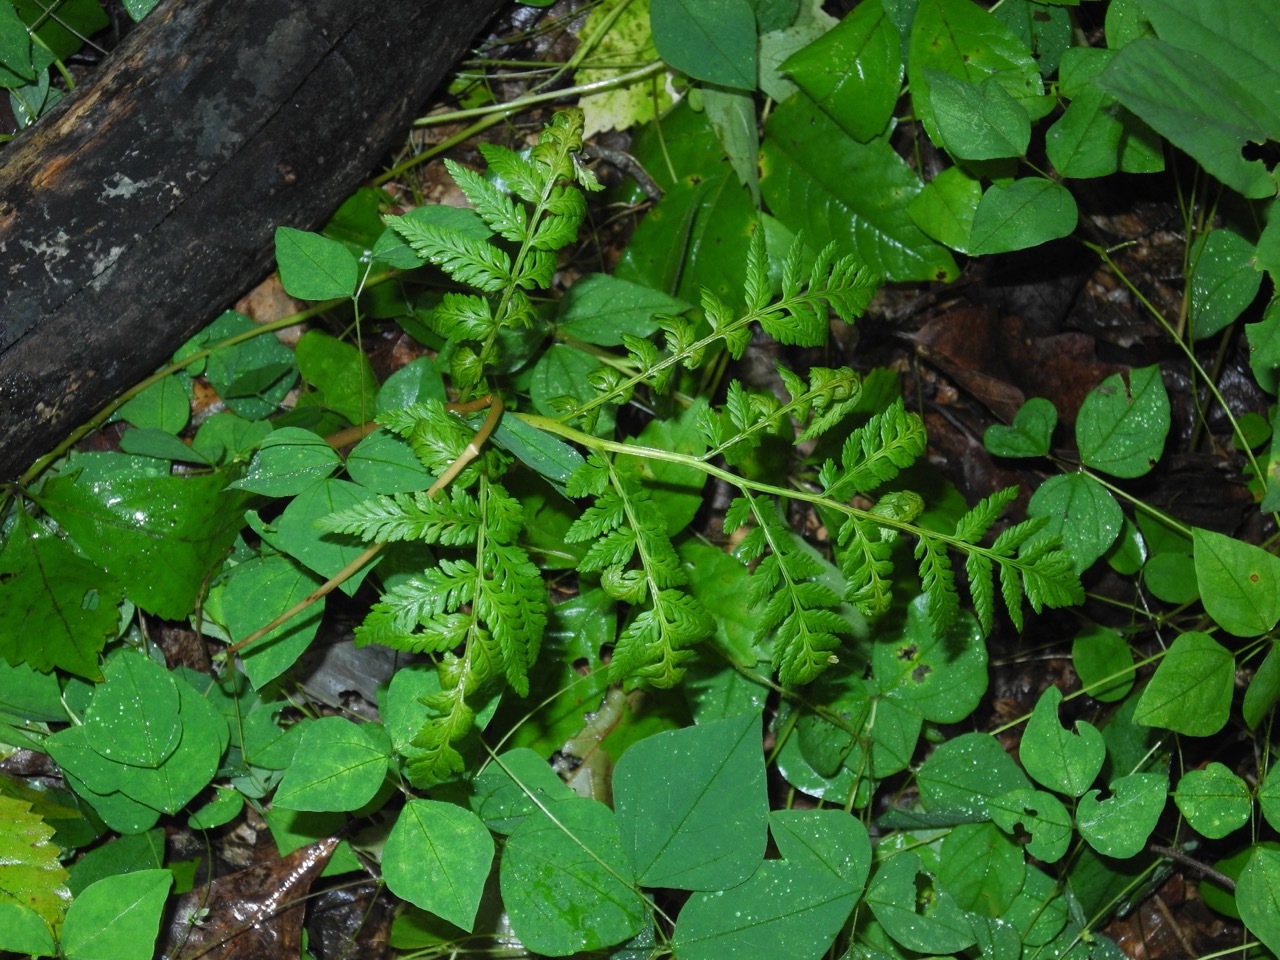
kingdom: Plantae
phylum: Tracheophyta
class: Polypodiopsida
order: Ophioglossales
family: Ophioglossaceae
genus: Botrypus
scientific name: Botrypus virginianus
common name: Common grapefern
